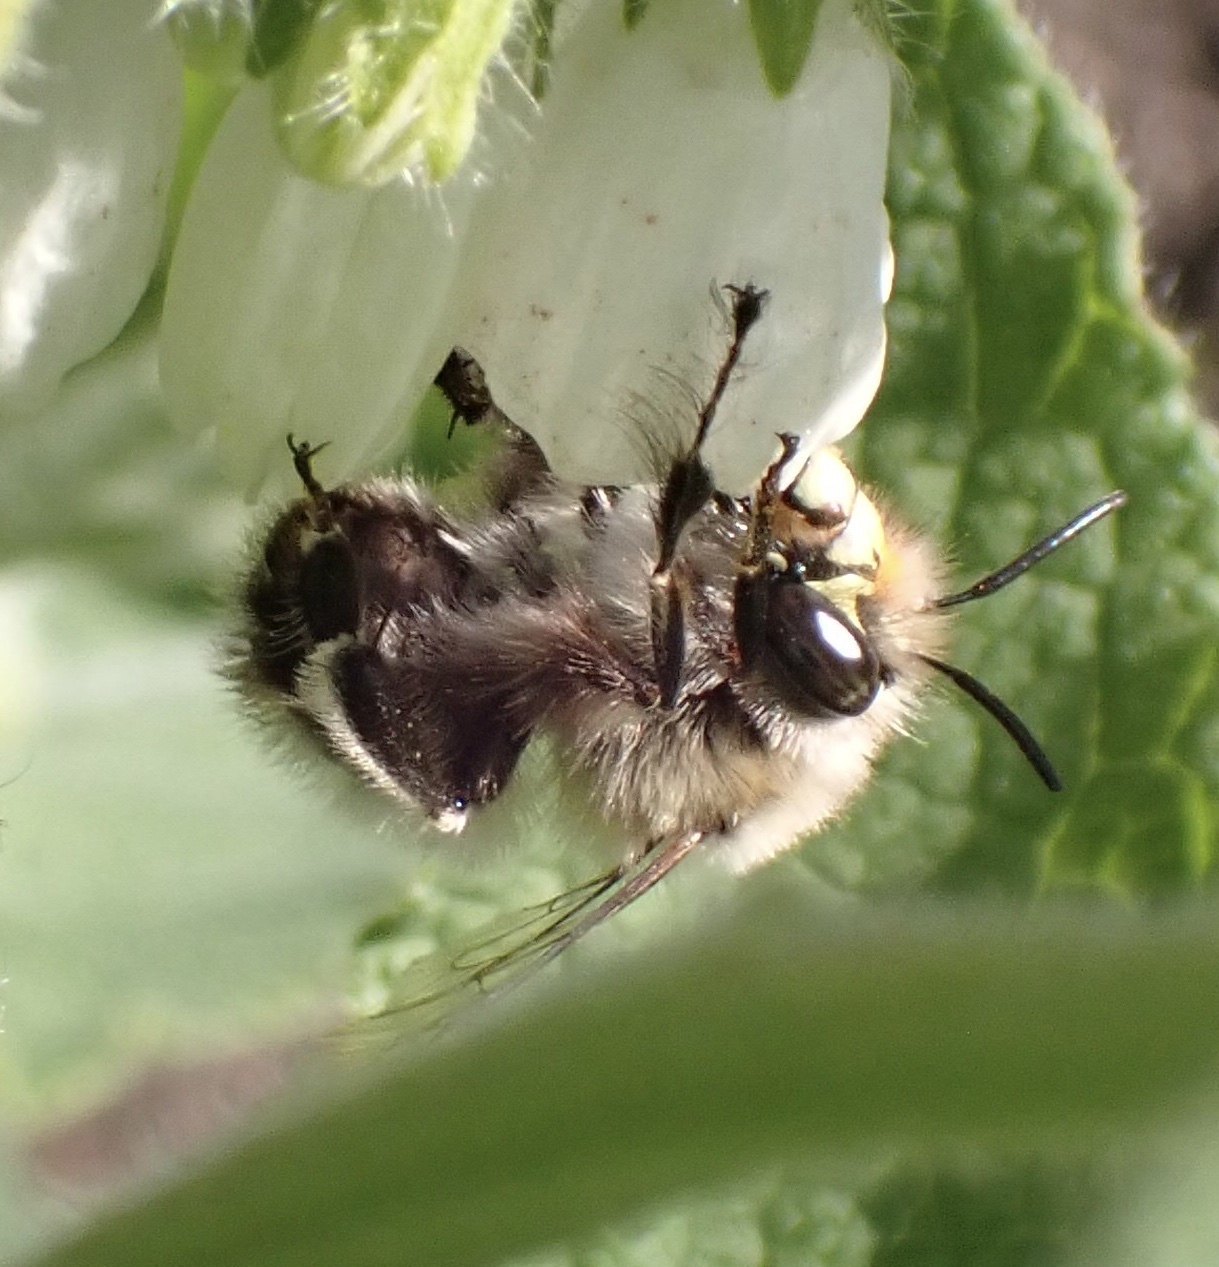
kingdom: Animalia
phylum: Arthropoda
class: Insecta
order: Hymenoptera
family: Apidae
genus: Anthophora
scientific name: Anthophora plumipes
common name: Hairy-footed flower bee
